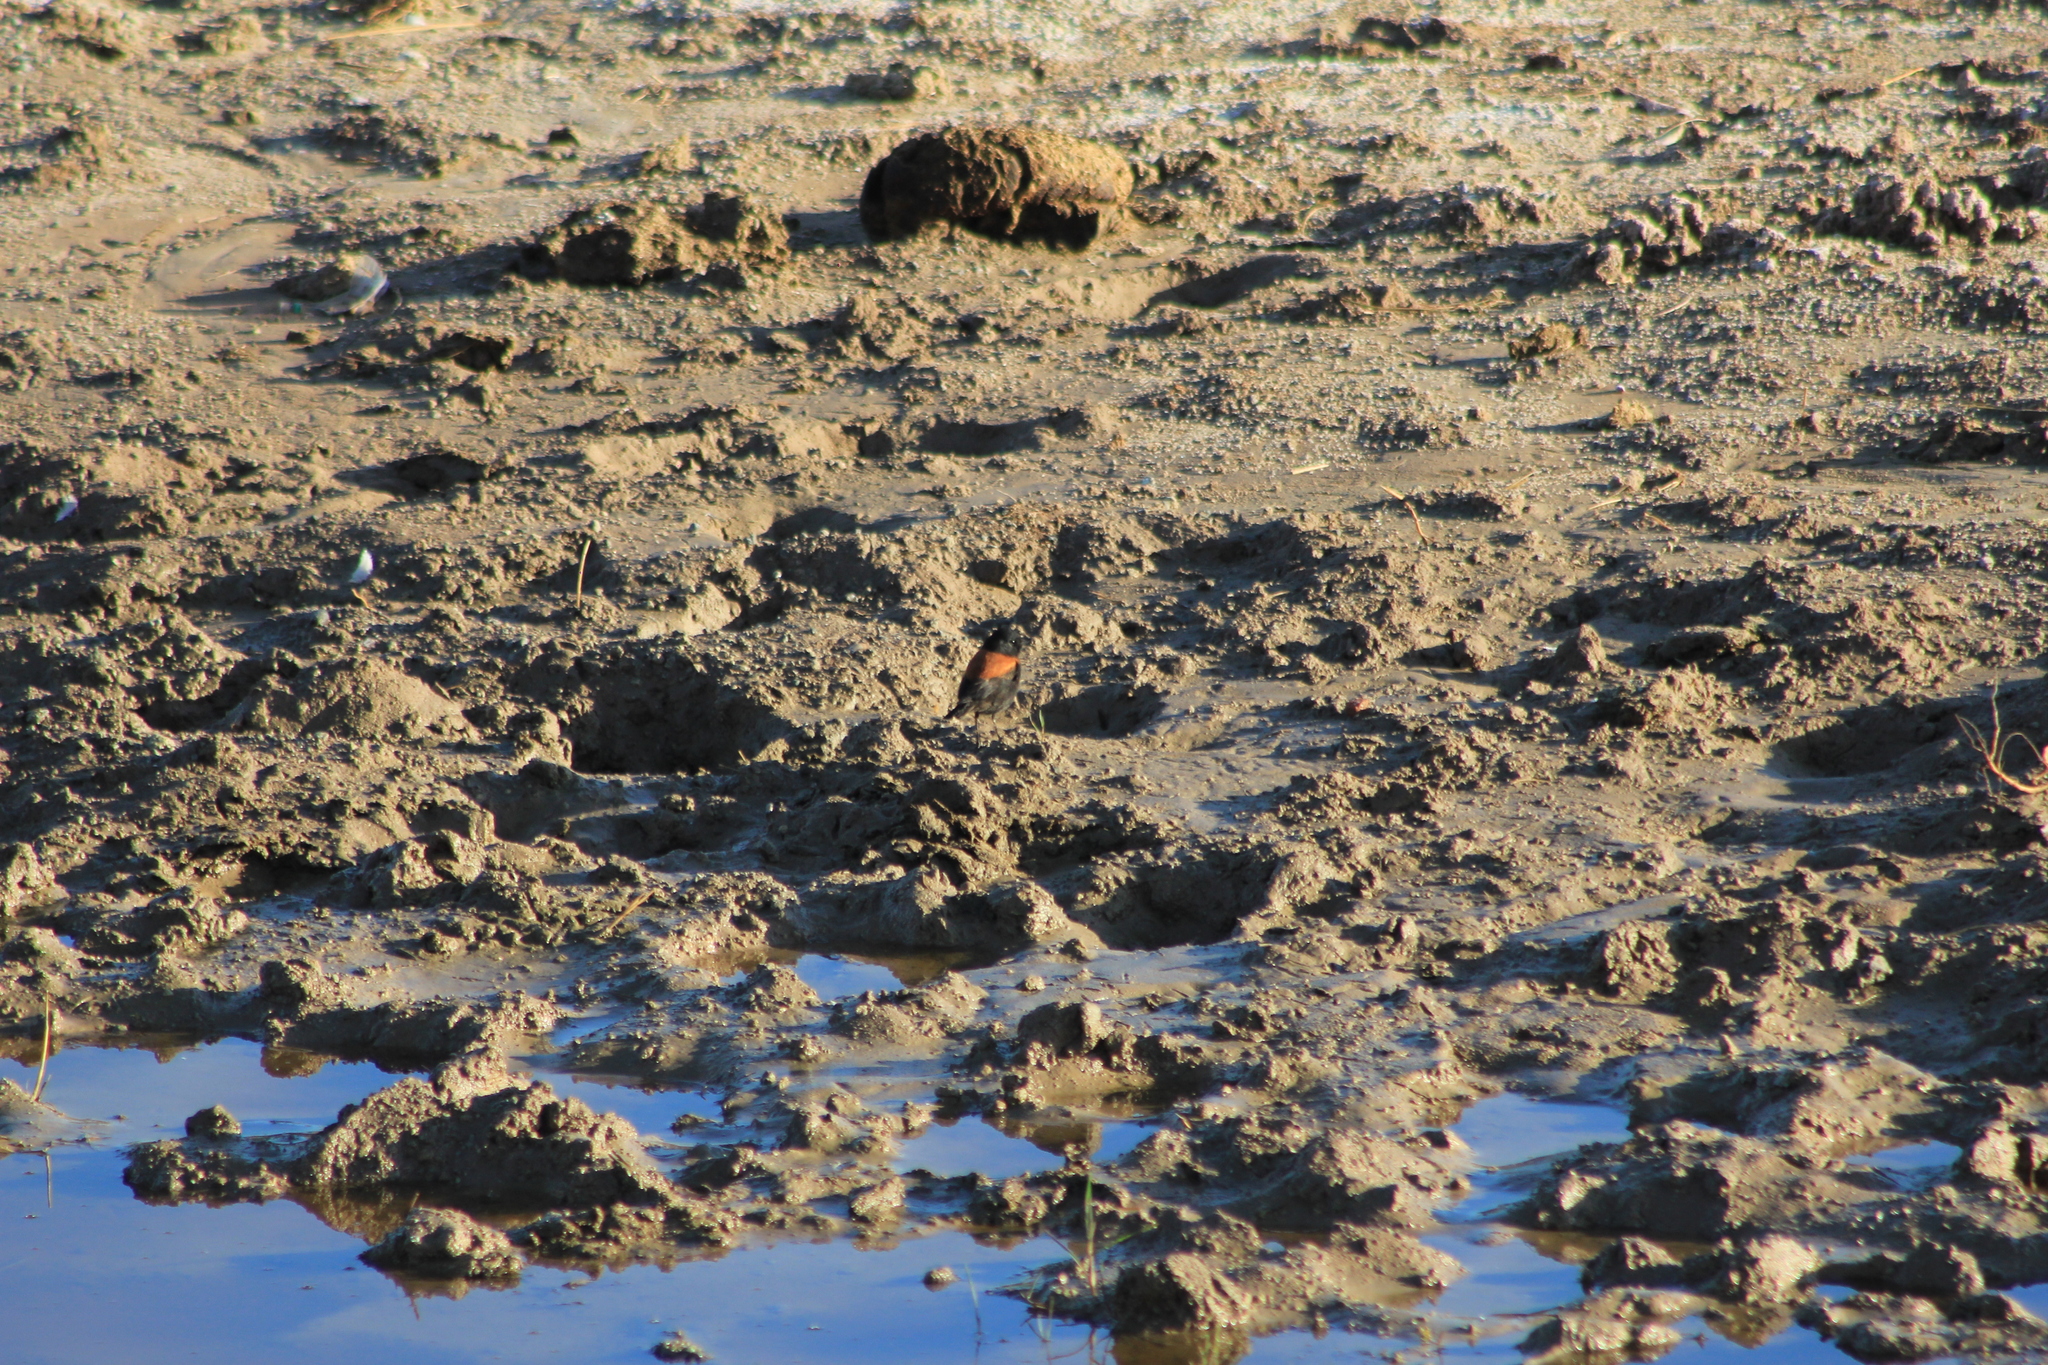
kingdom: Animalia
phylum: Chordata
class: Aves
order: Passeriformes
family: Tyrannidae
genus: Lessonia
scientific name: Lessonia rufa
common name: Austral negrito
